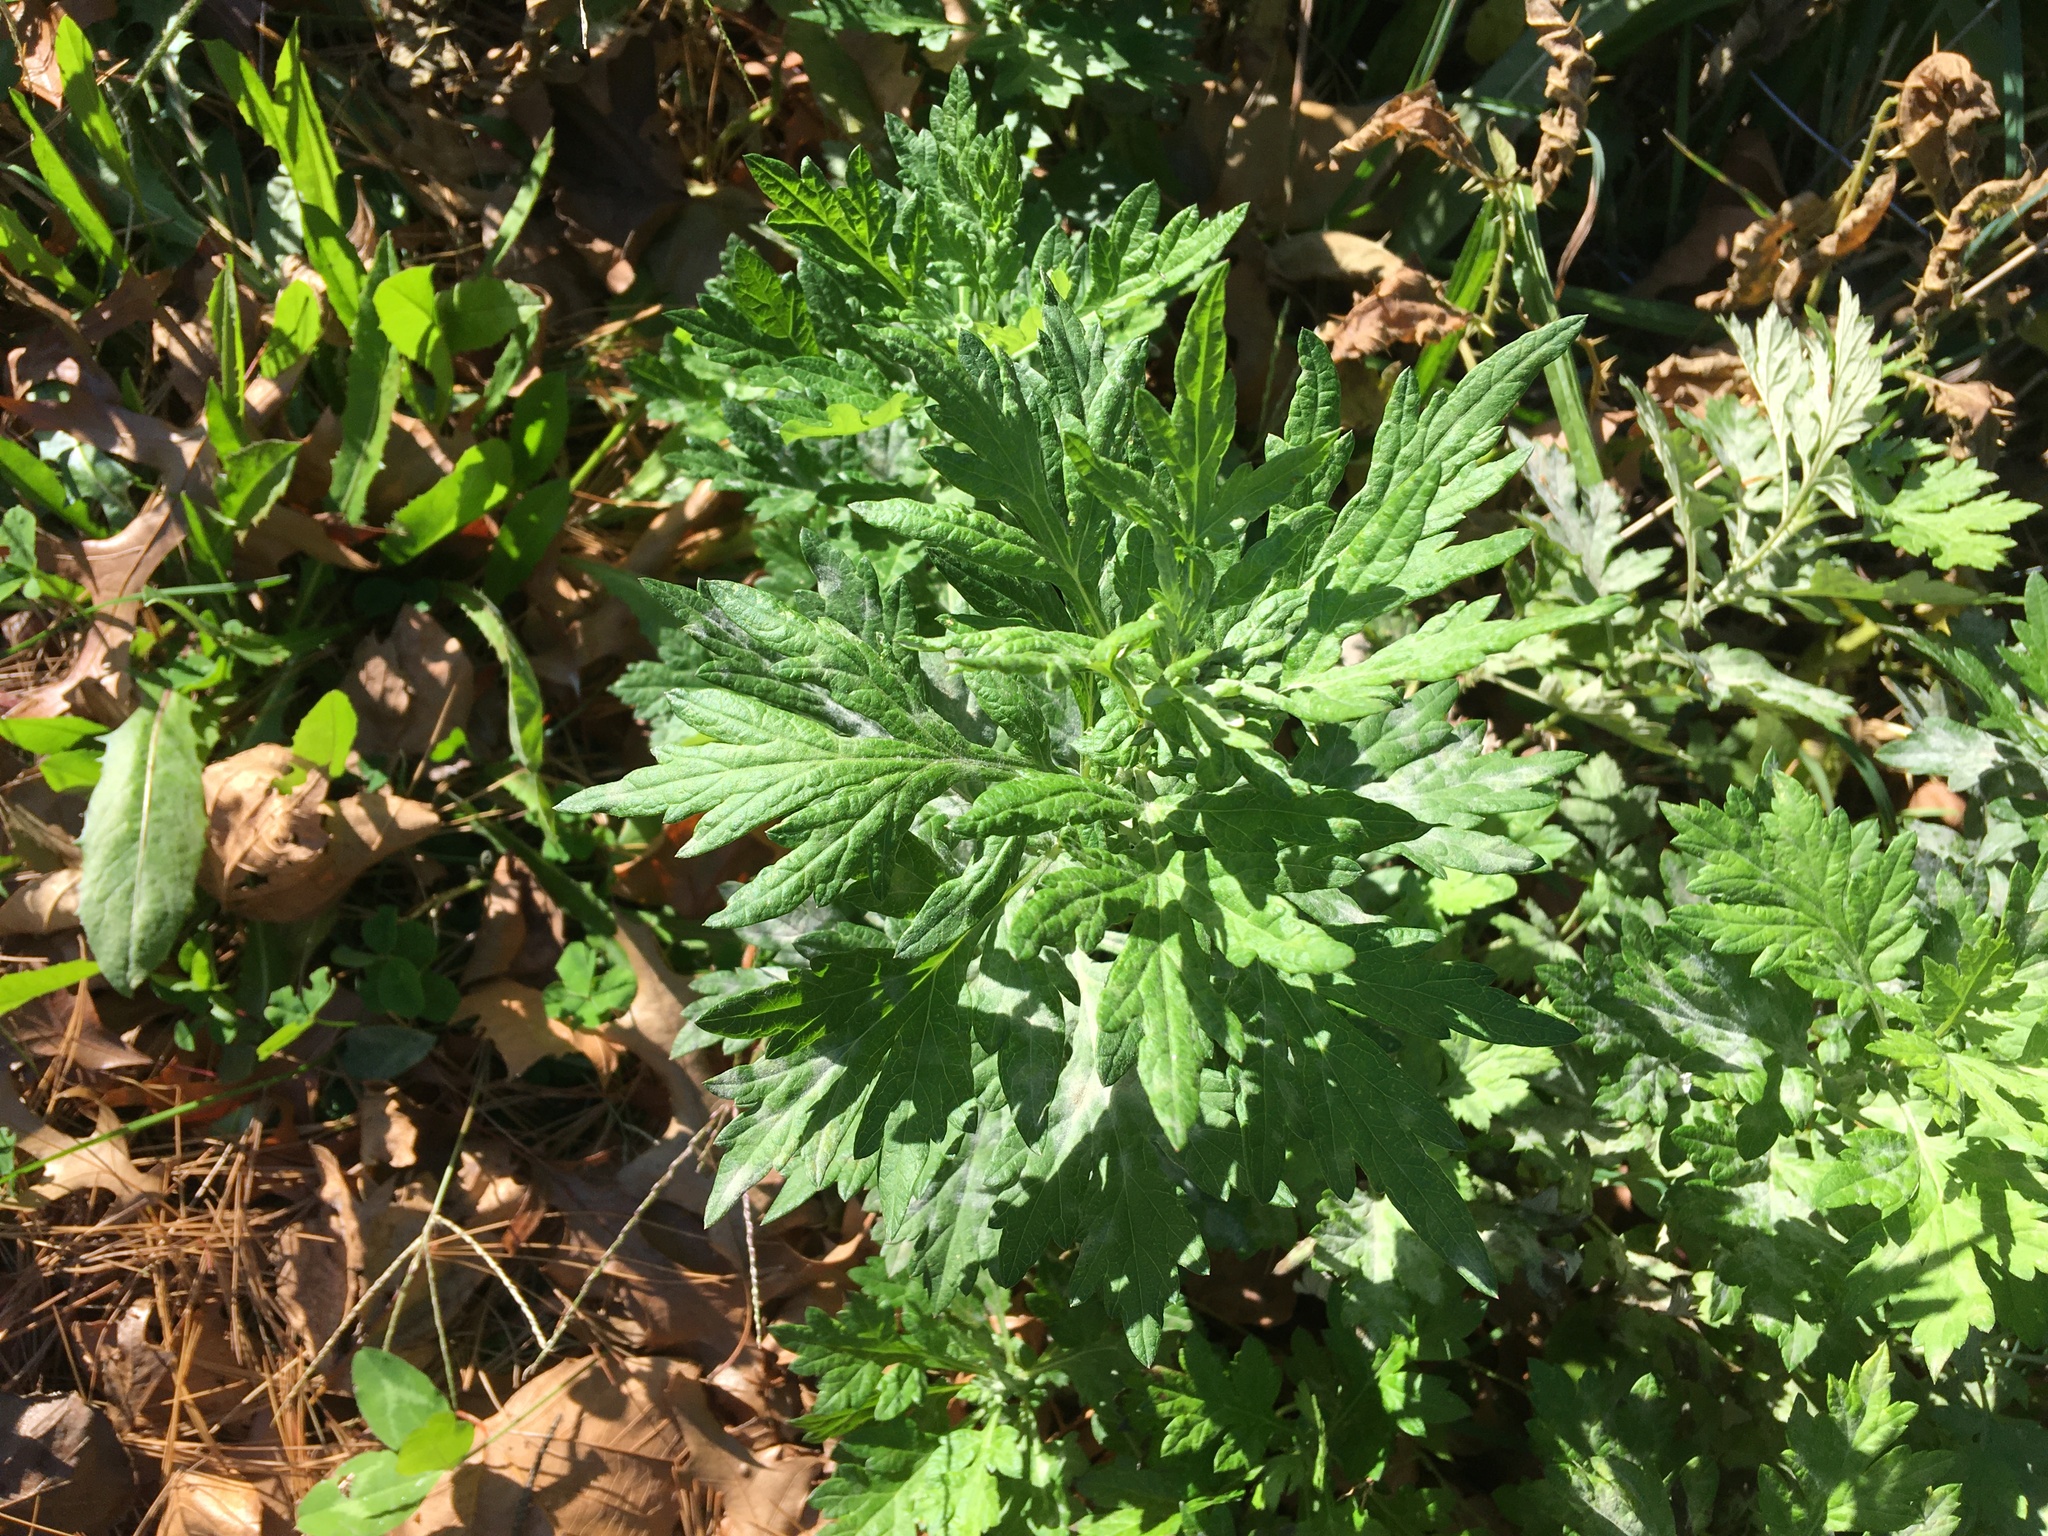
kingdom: Plantae
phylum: Tracheophyta
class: Magnoliopsida
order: Asterales
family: Asteraceae
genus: Artemisia
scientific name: Artemisia vulgaris
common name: Mugwort
